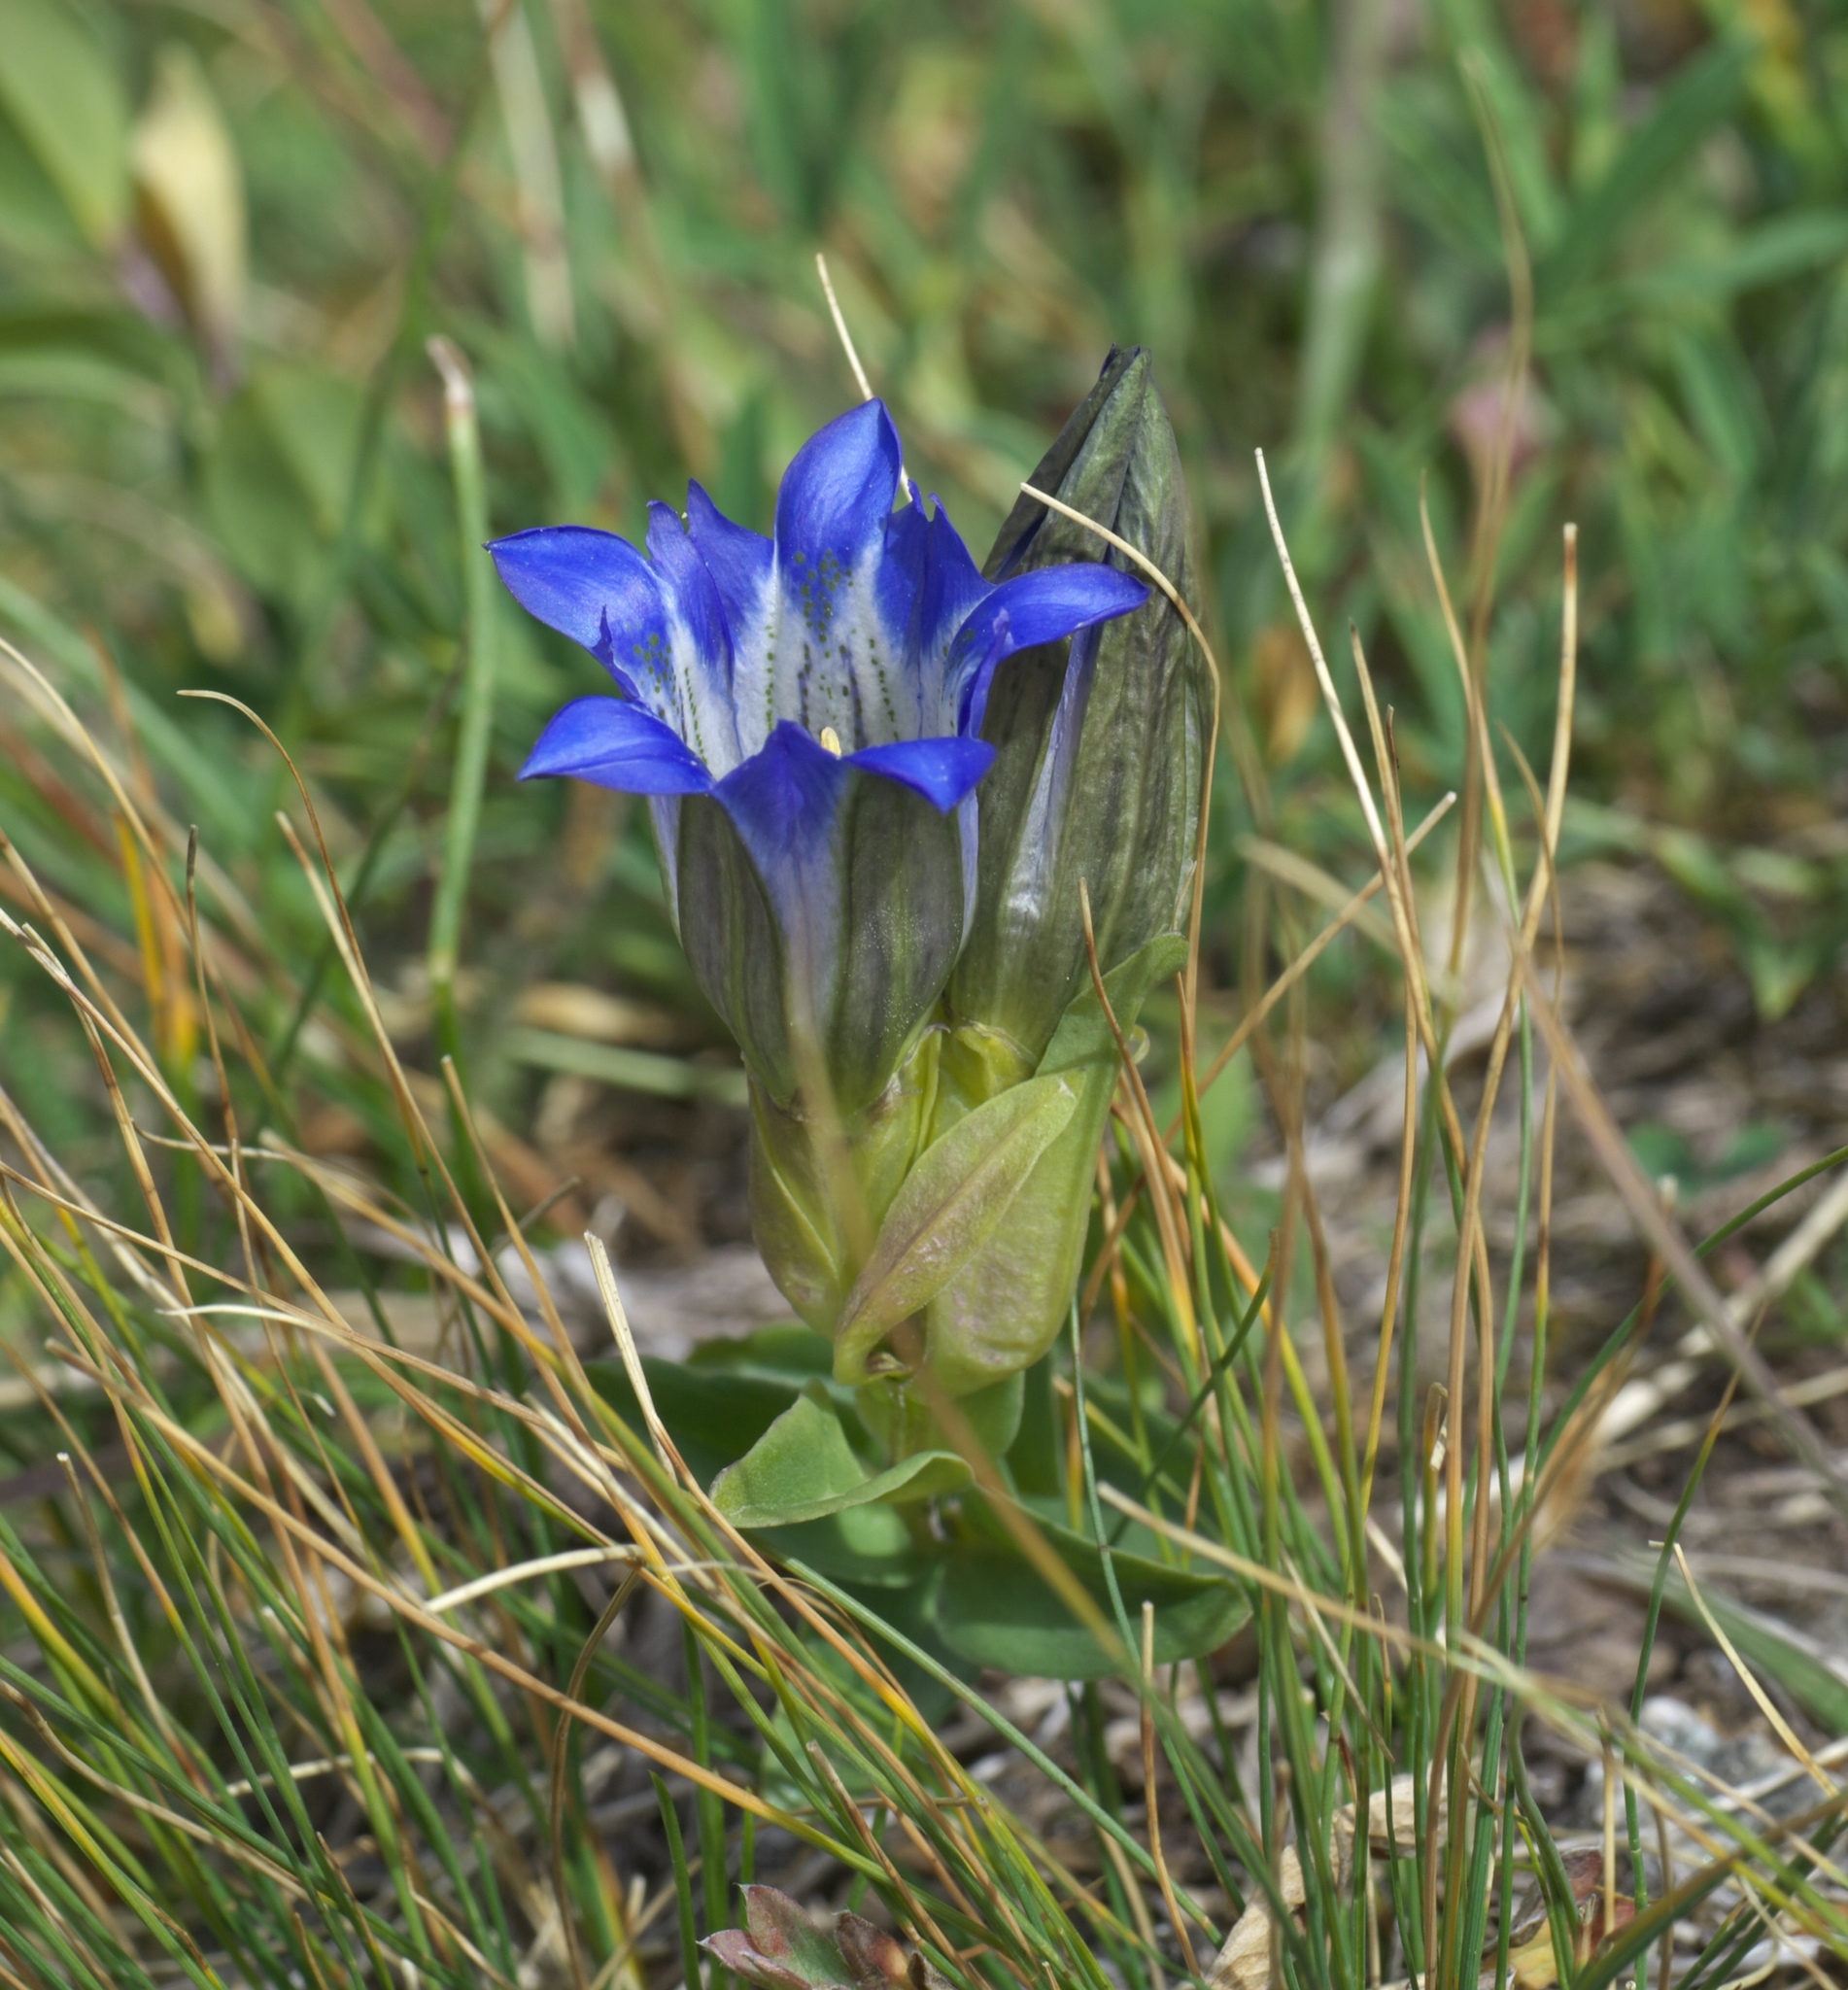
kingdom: Plantae
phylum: Tracheophyta
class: Magnoliopsida
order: Gentianales
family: Gentianaceae
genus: Gentiana
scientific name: Gentiana parryi
